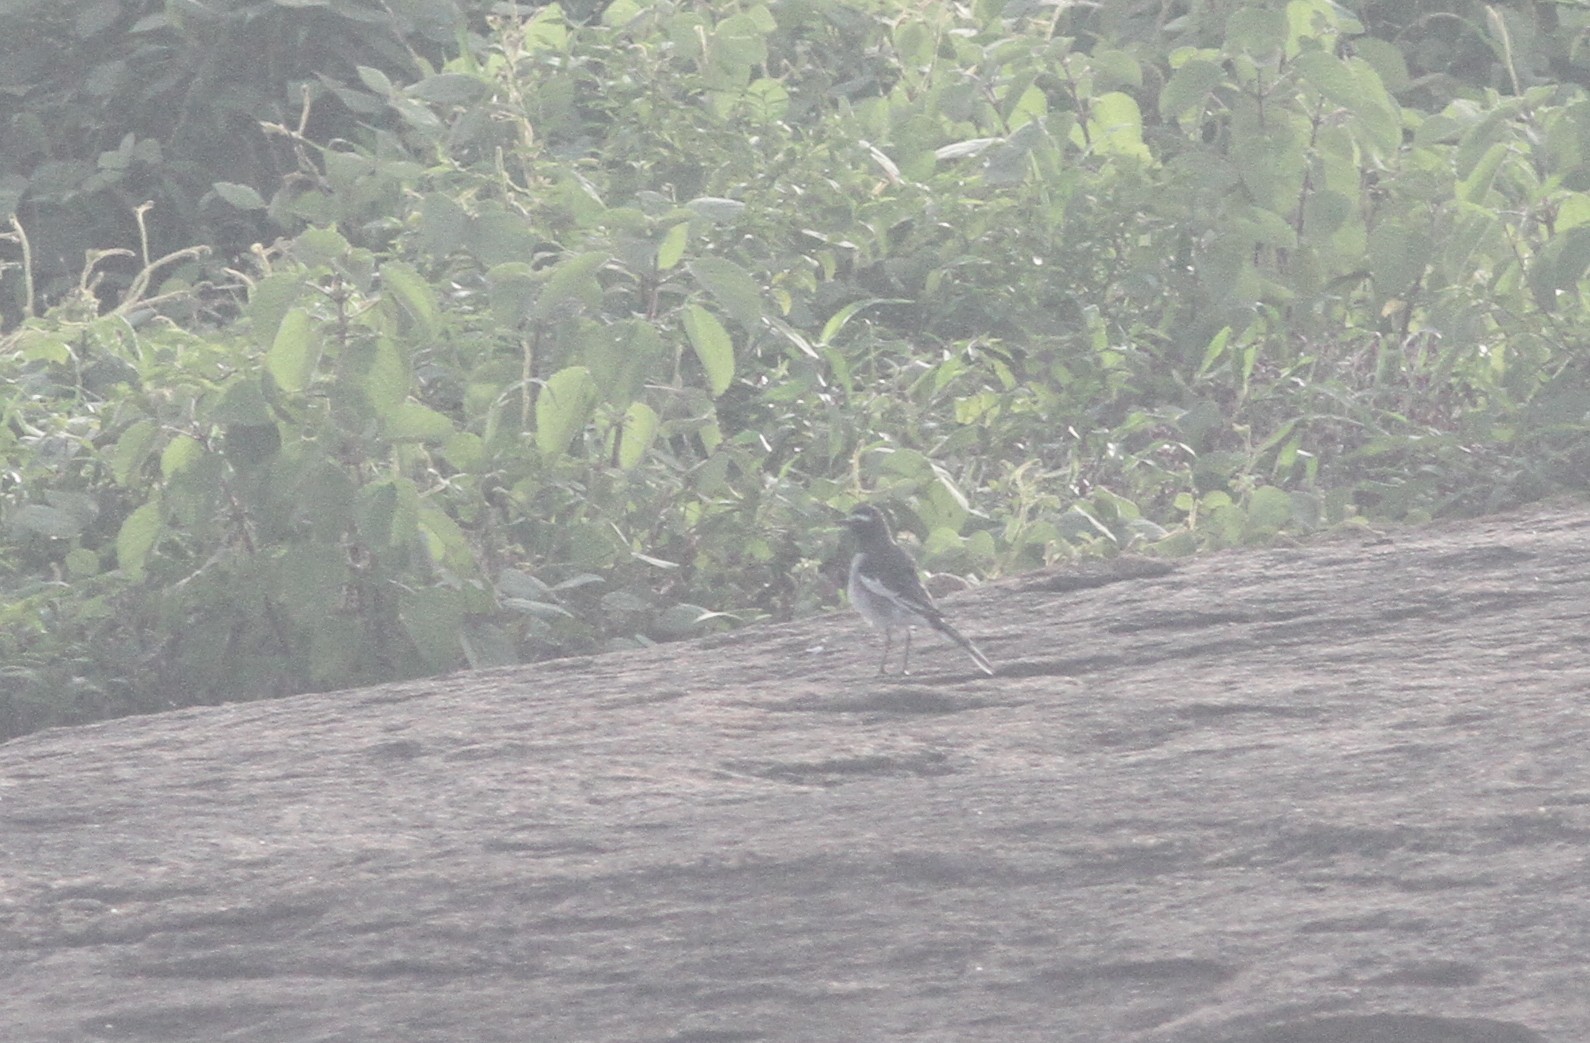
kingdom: Animalia
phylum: Chordata
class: Aves
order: Passeriformes
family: Motacillidae
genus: Motacilla
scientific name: Motacilla maderaspatensis
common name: White-browed wagtail
